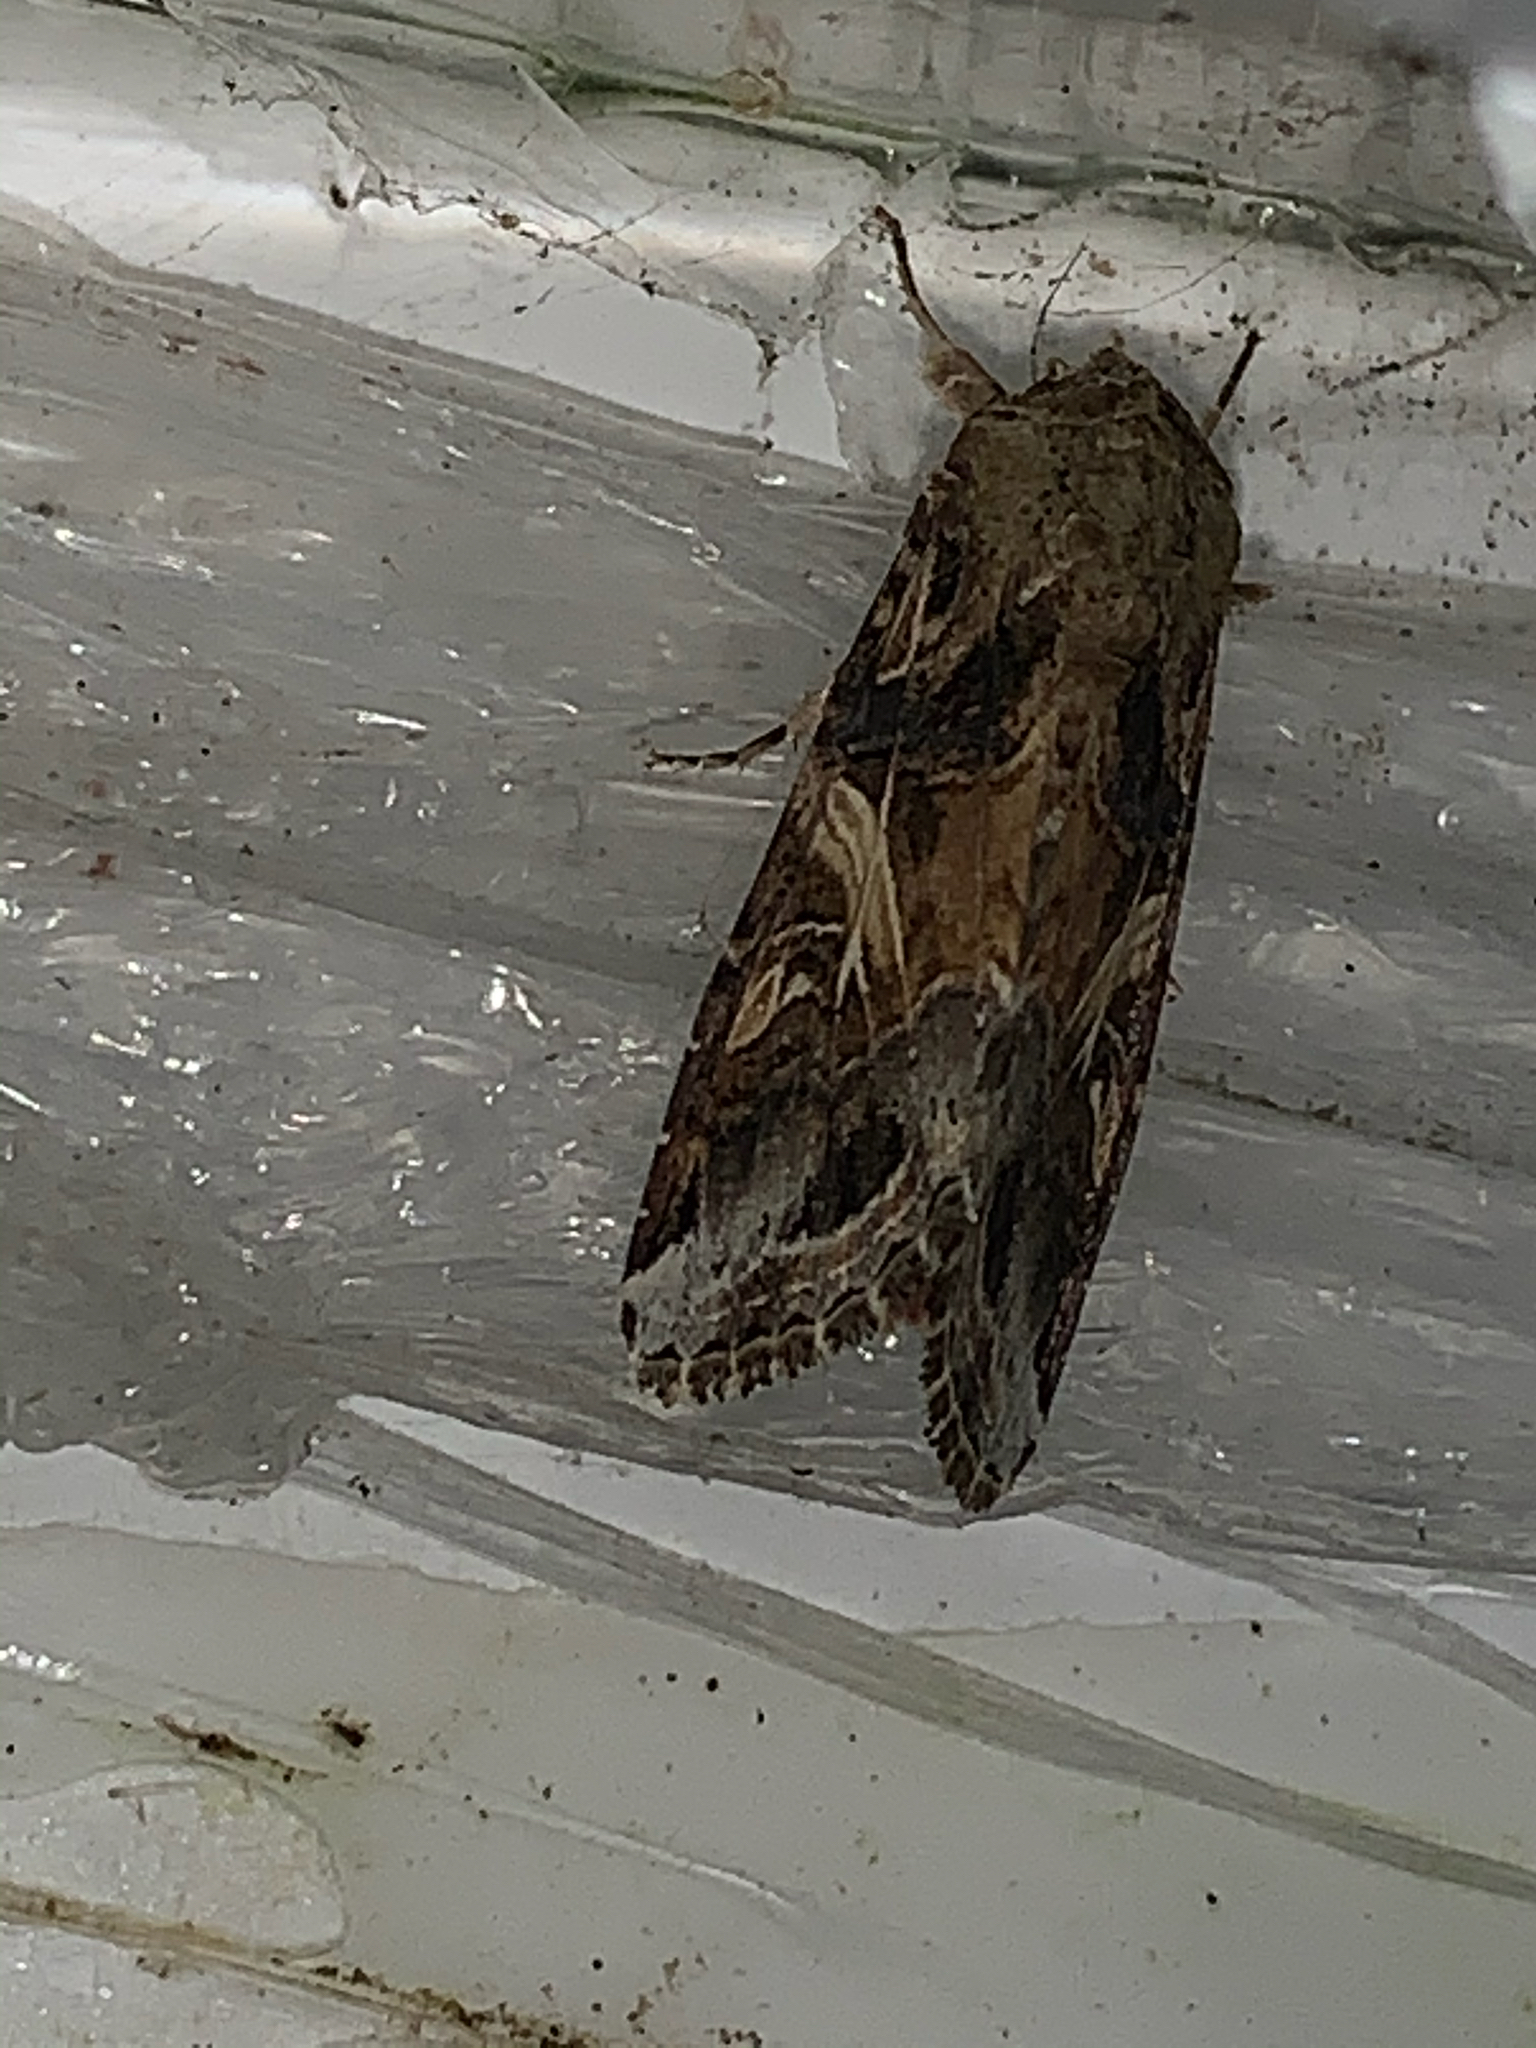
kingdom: Animalia
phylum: Arthropoda
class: Insecta
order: Lepidoptera
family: Noctuidae
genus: Spodoptera
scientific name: Spodoptera ornithogalli
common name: Yellow-striped armyworm
